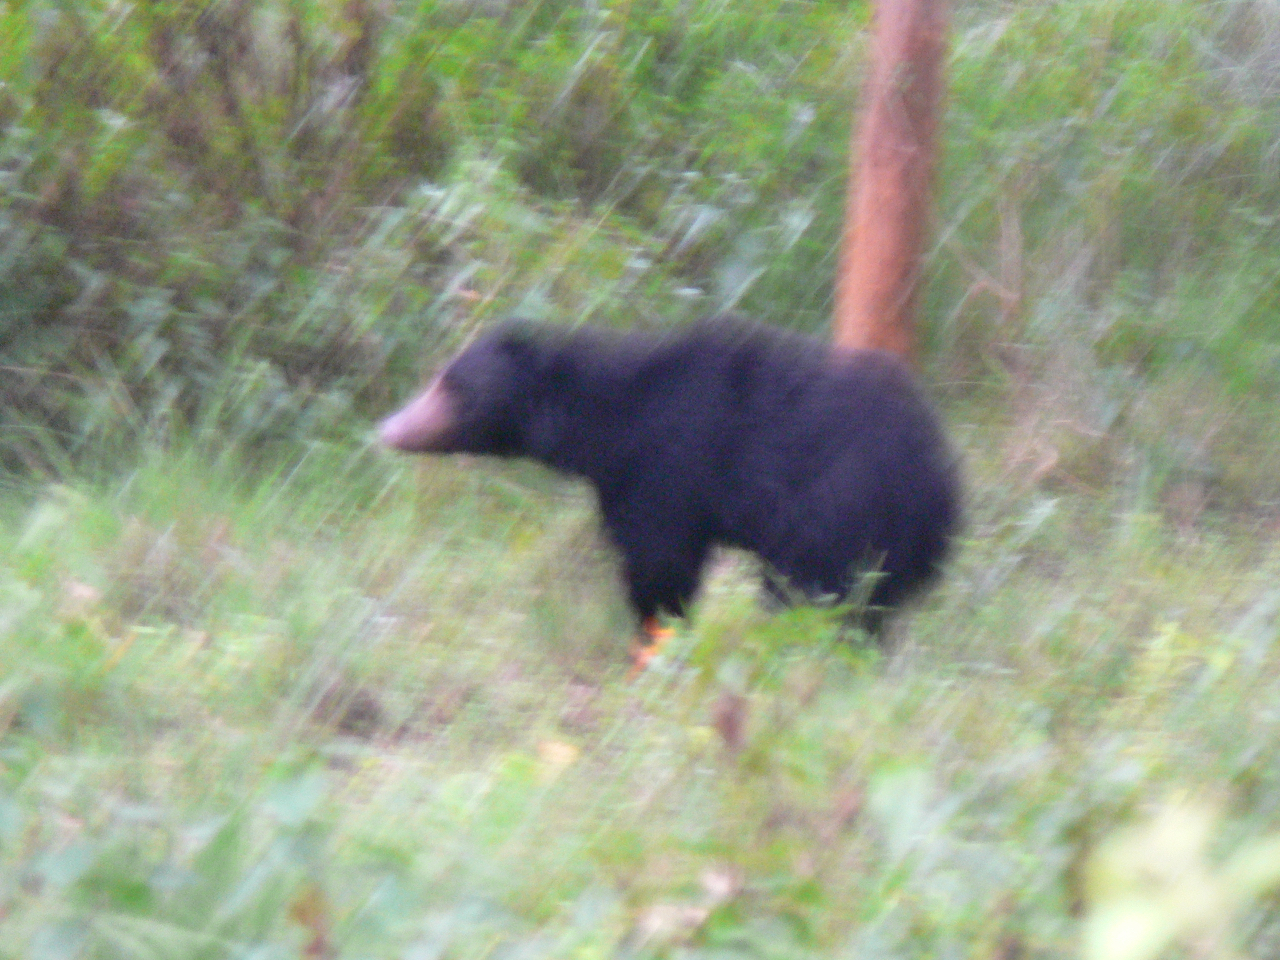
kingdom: Animalia
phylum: Chordata
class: Mammalia
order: Carnivora
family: Ursidae
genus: Melursus
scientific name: Melursus ursinus
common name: Sloth bear
